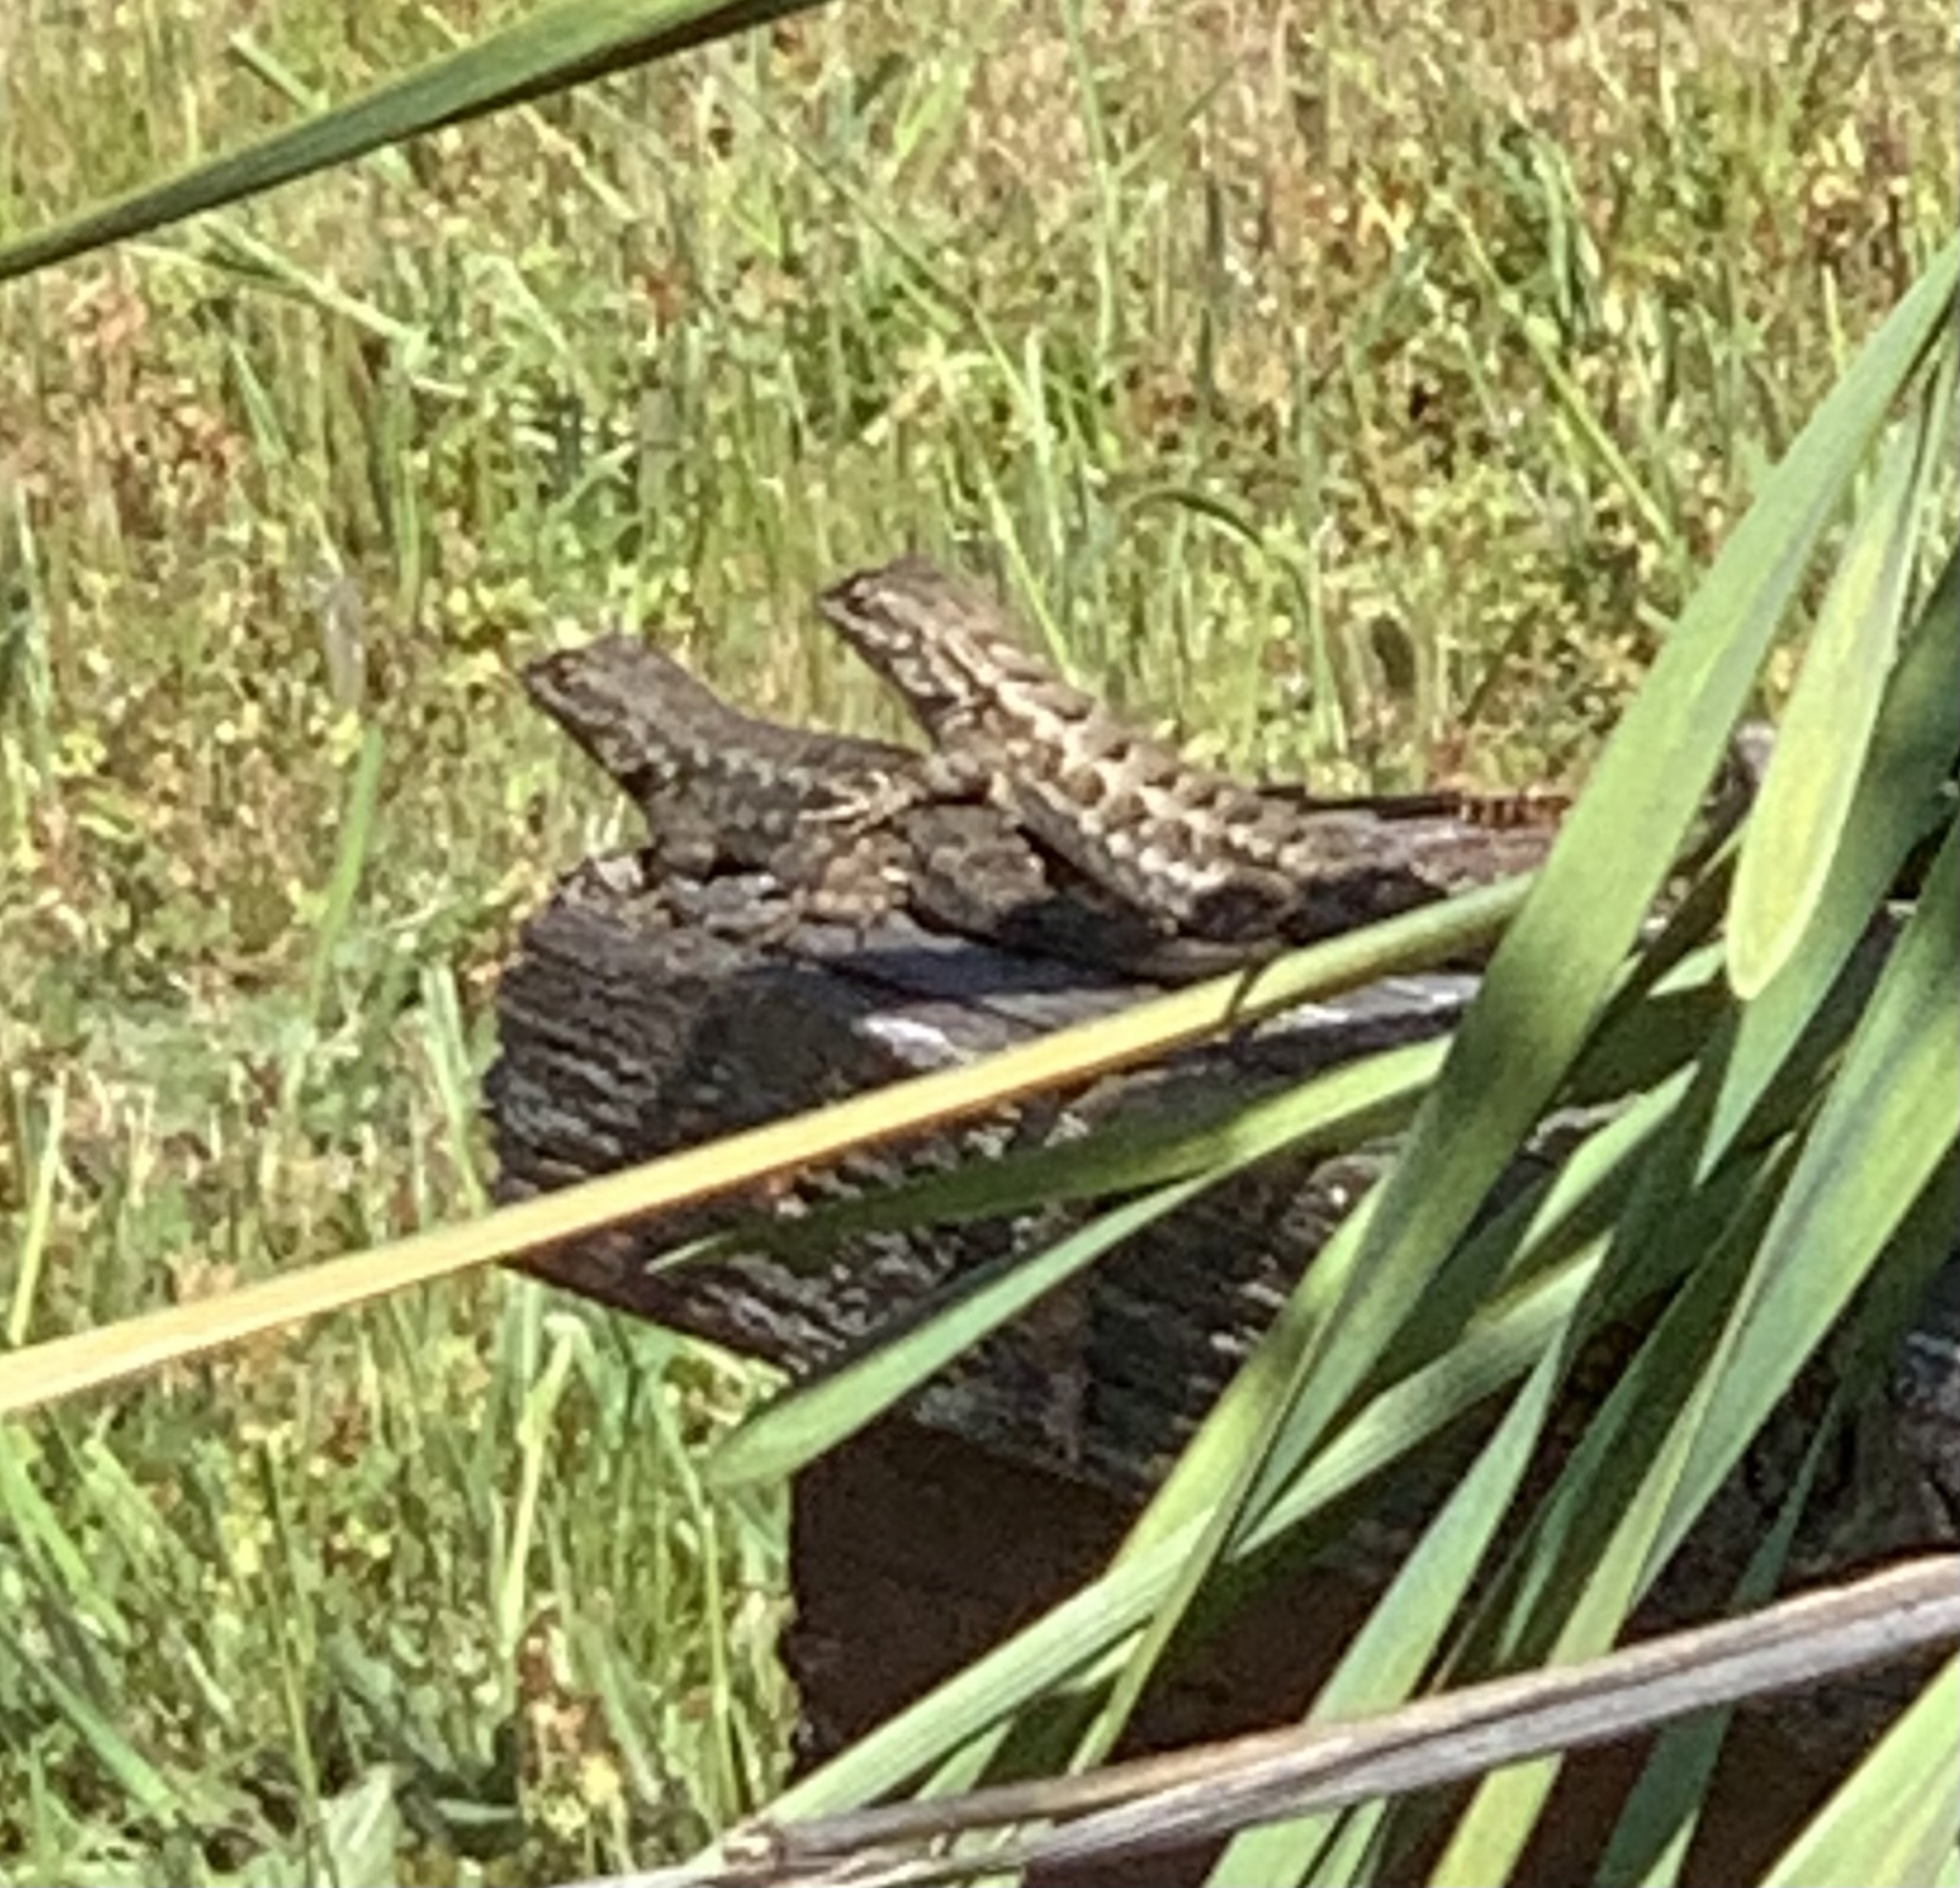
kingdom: Animalia
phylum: Chordata
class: Squamata
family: Phrynosomatidae
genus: Sceloporus
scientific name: Sceloporus occidentalis
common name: Western fence lizard
